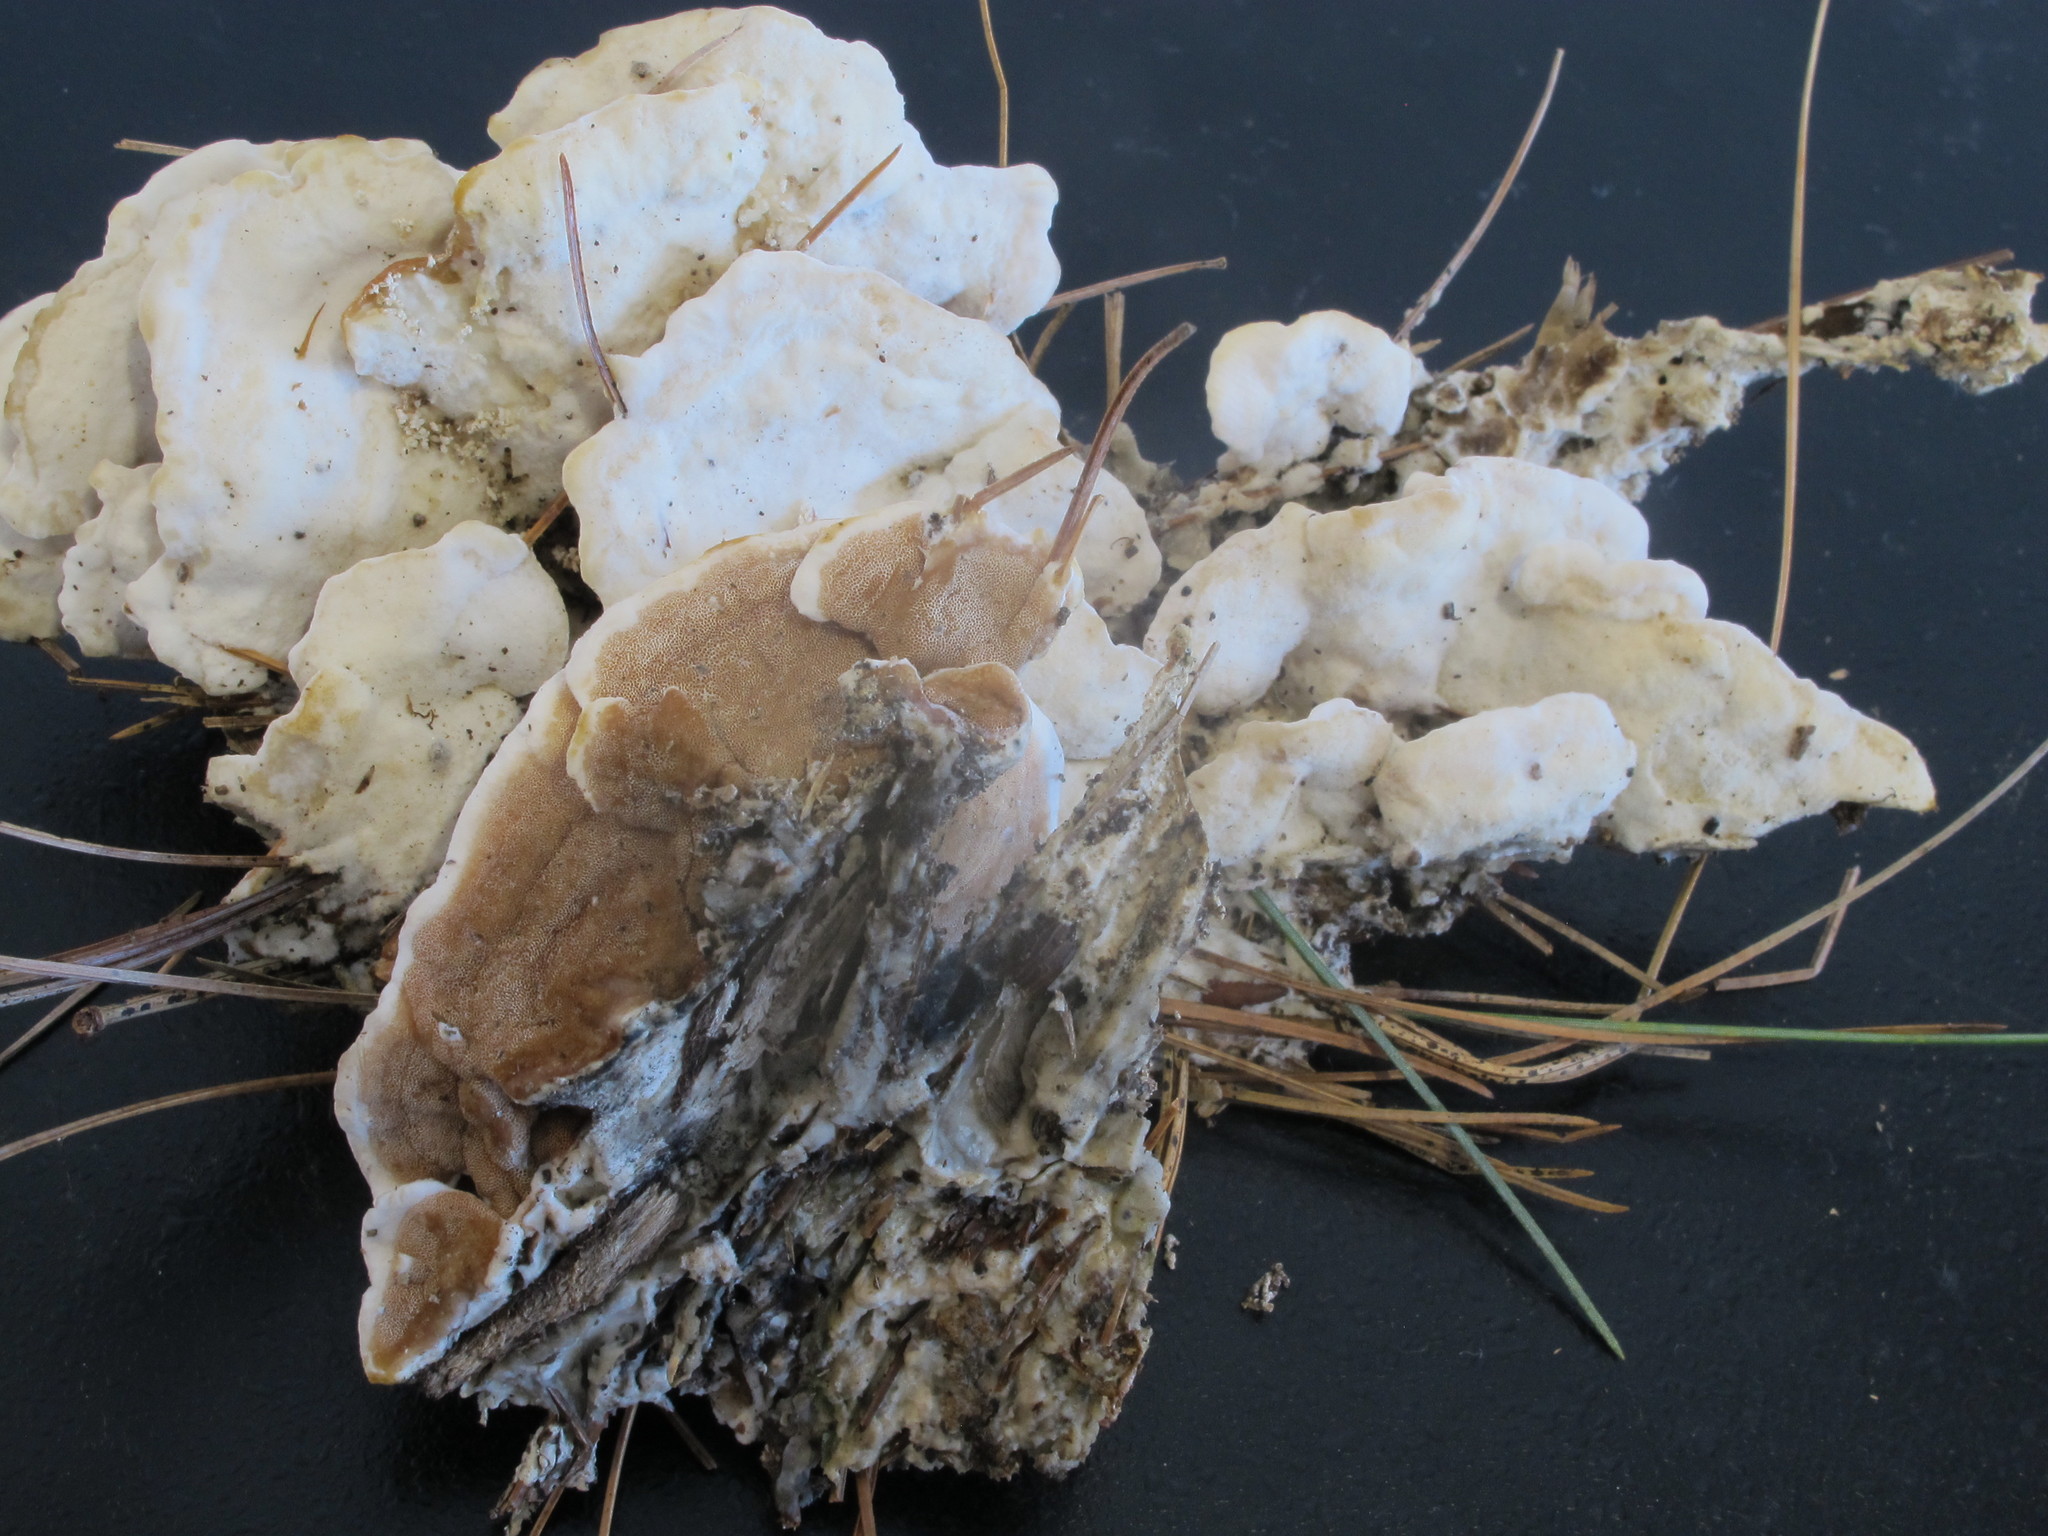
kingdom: Fungi
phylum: Basidiomycota
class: Agaricomycetes
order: Polyporales
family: Irpicaceae
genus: Vitreoporus
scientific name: Vitreoporus dichrous
